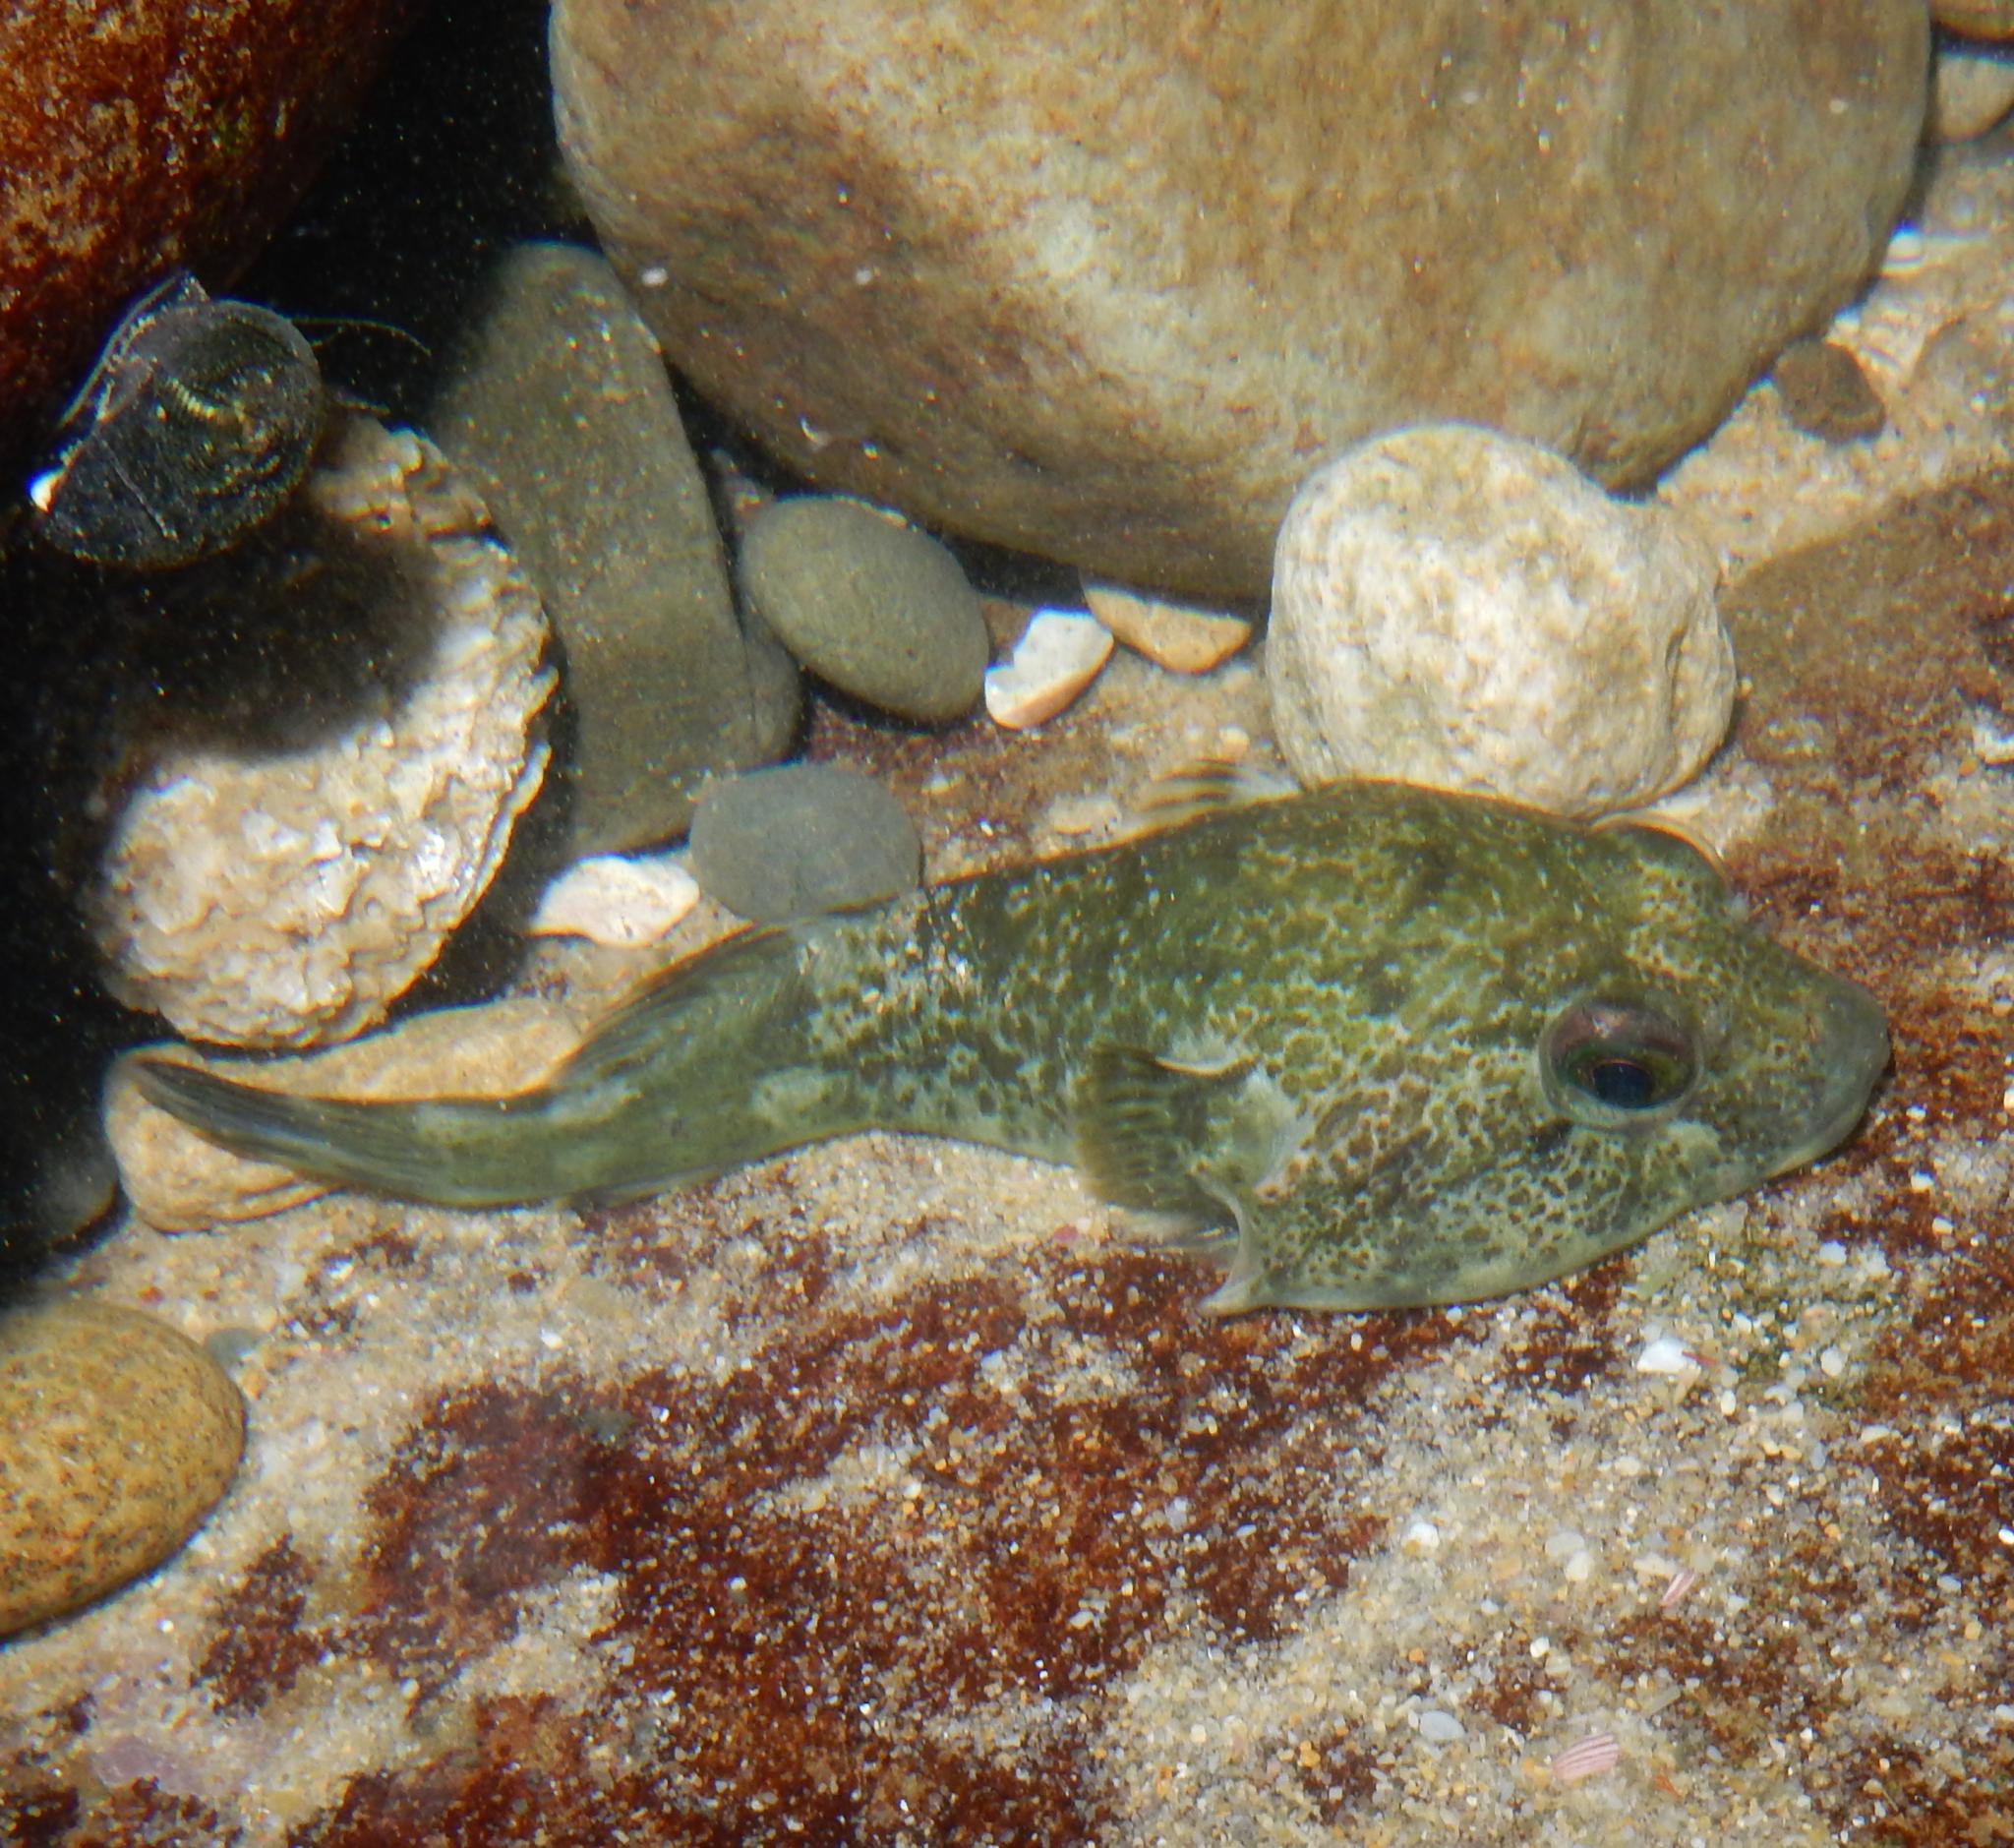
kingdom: Animalia
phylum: Chordata
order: Gobiesociformes
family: Gobiesocidae
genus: Chorisochismus
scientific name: Chorisochismus dentex
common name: Rocksucker
